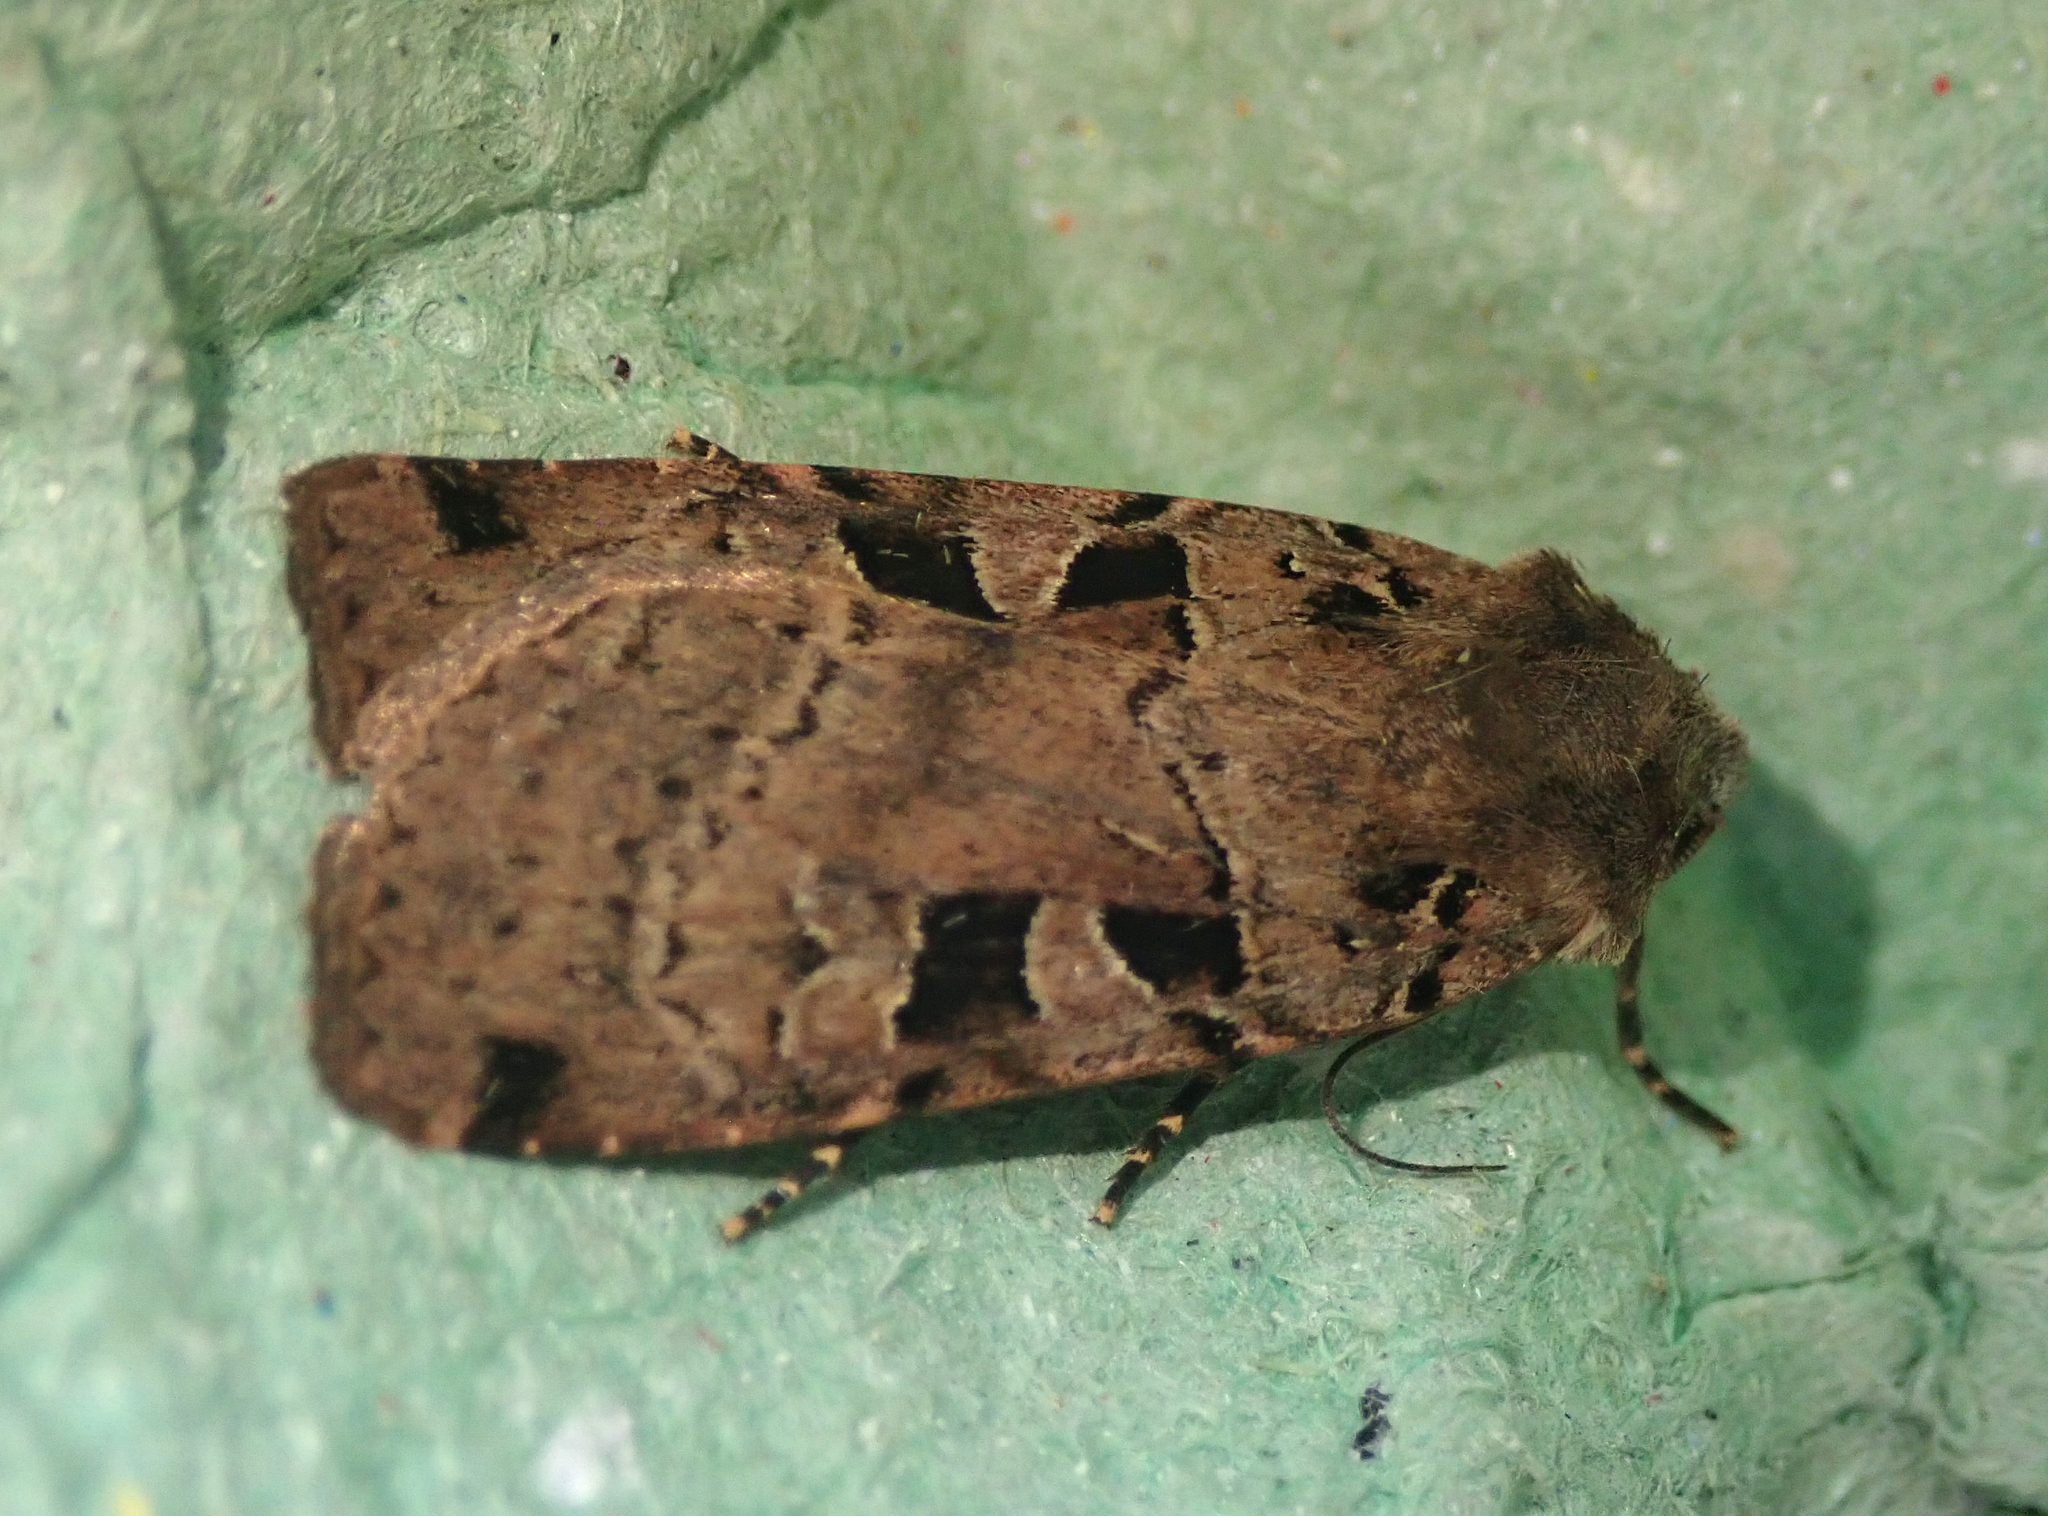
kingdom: Animalia
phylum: Arthropoda
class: Insecta
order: Lepidoptera
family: Noctuidae
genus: Xestia
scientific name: Xestia triangulum
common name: Double square-spot
